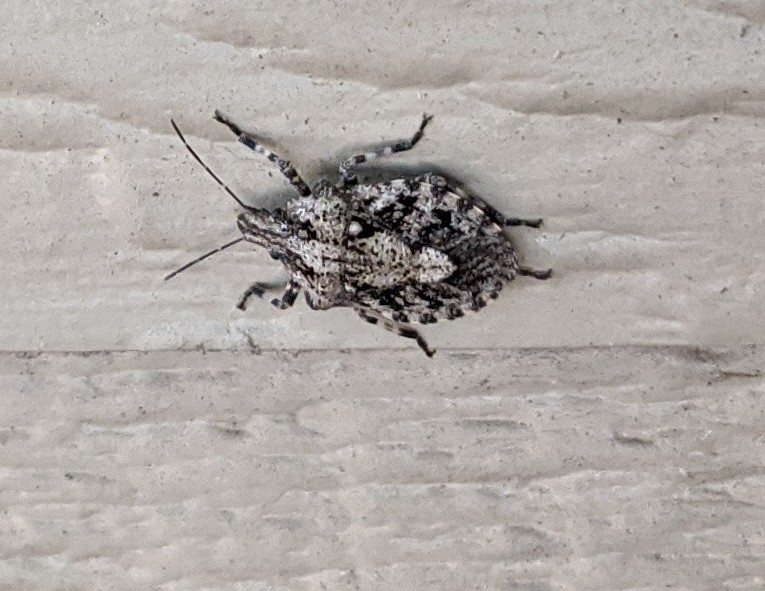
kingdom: Animalia
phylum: Arthropoda
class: Insecta
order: Hemiptera
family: Pentatomidae
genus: Brochymena
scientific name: Brochymena arborea
